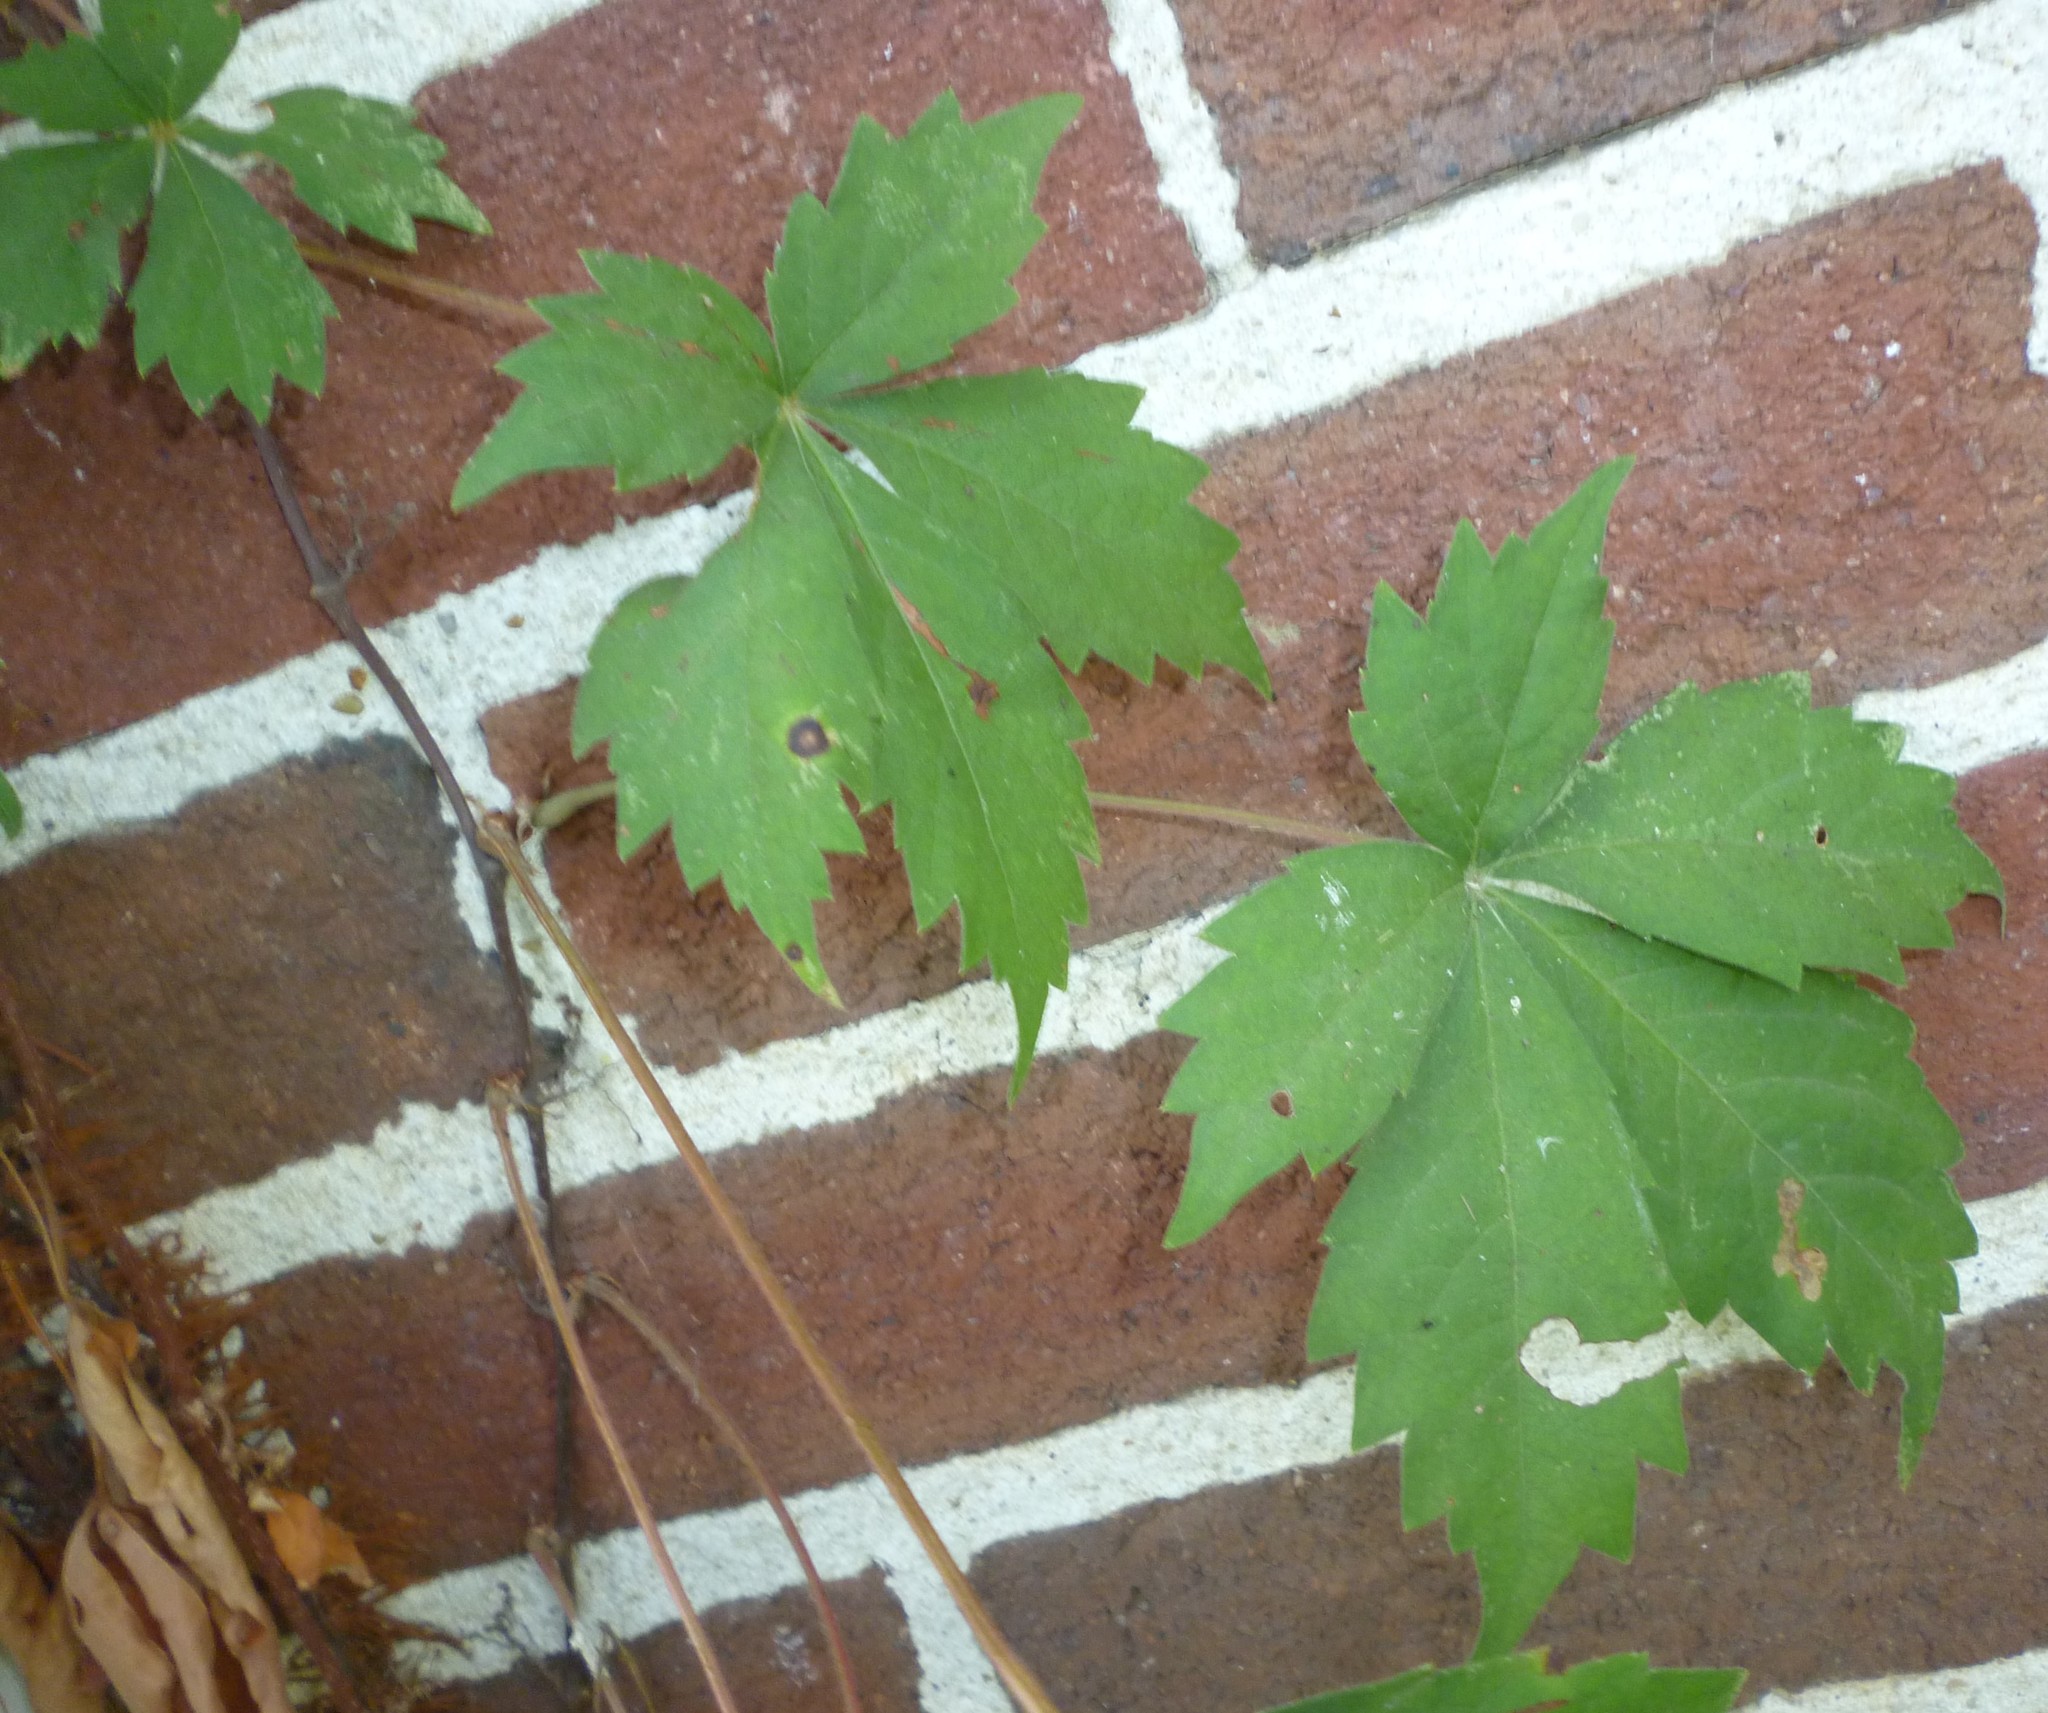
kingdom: Plantae
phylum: Tracheophyta
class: Magnoliopsida
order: Vitales
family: Vitaceae
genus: Parthenocissus
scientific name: Parthenocissus quinquefolia
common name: Virginia-creeper
